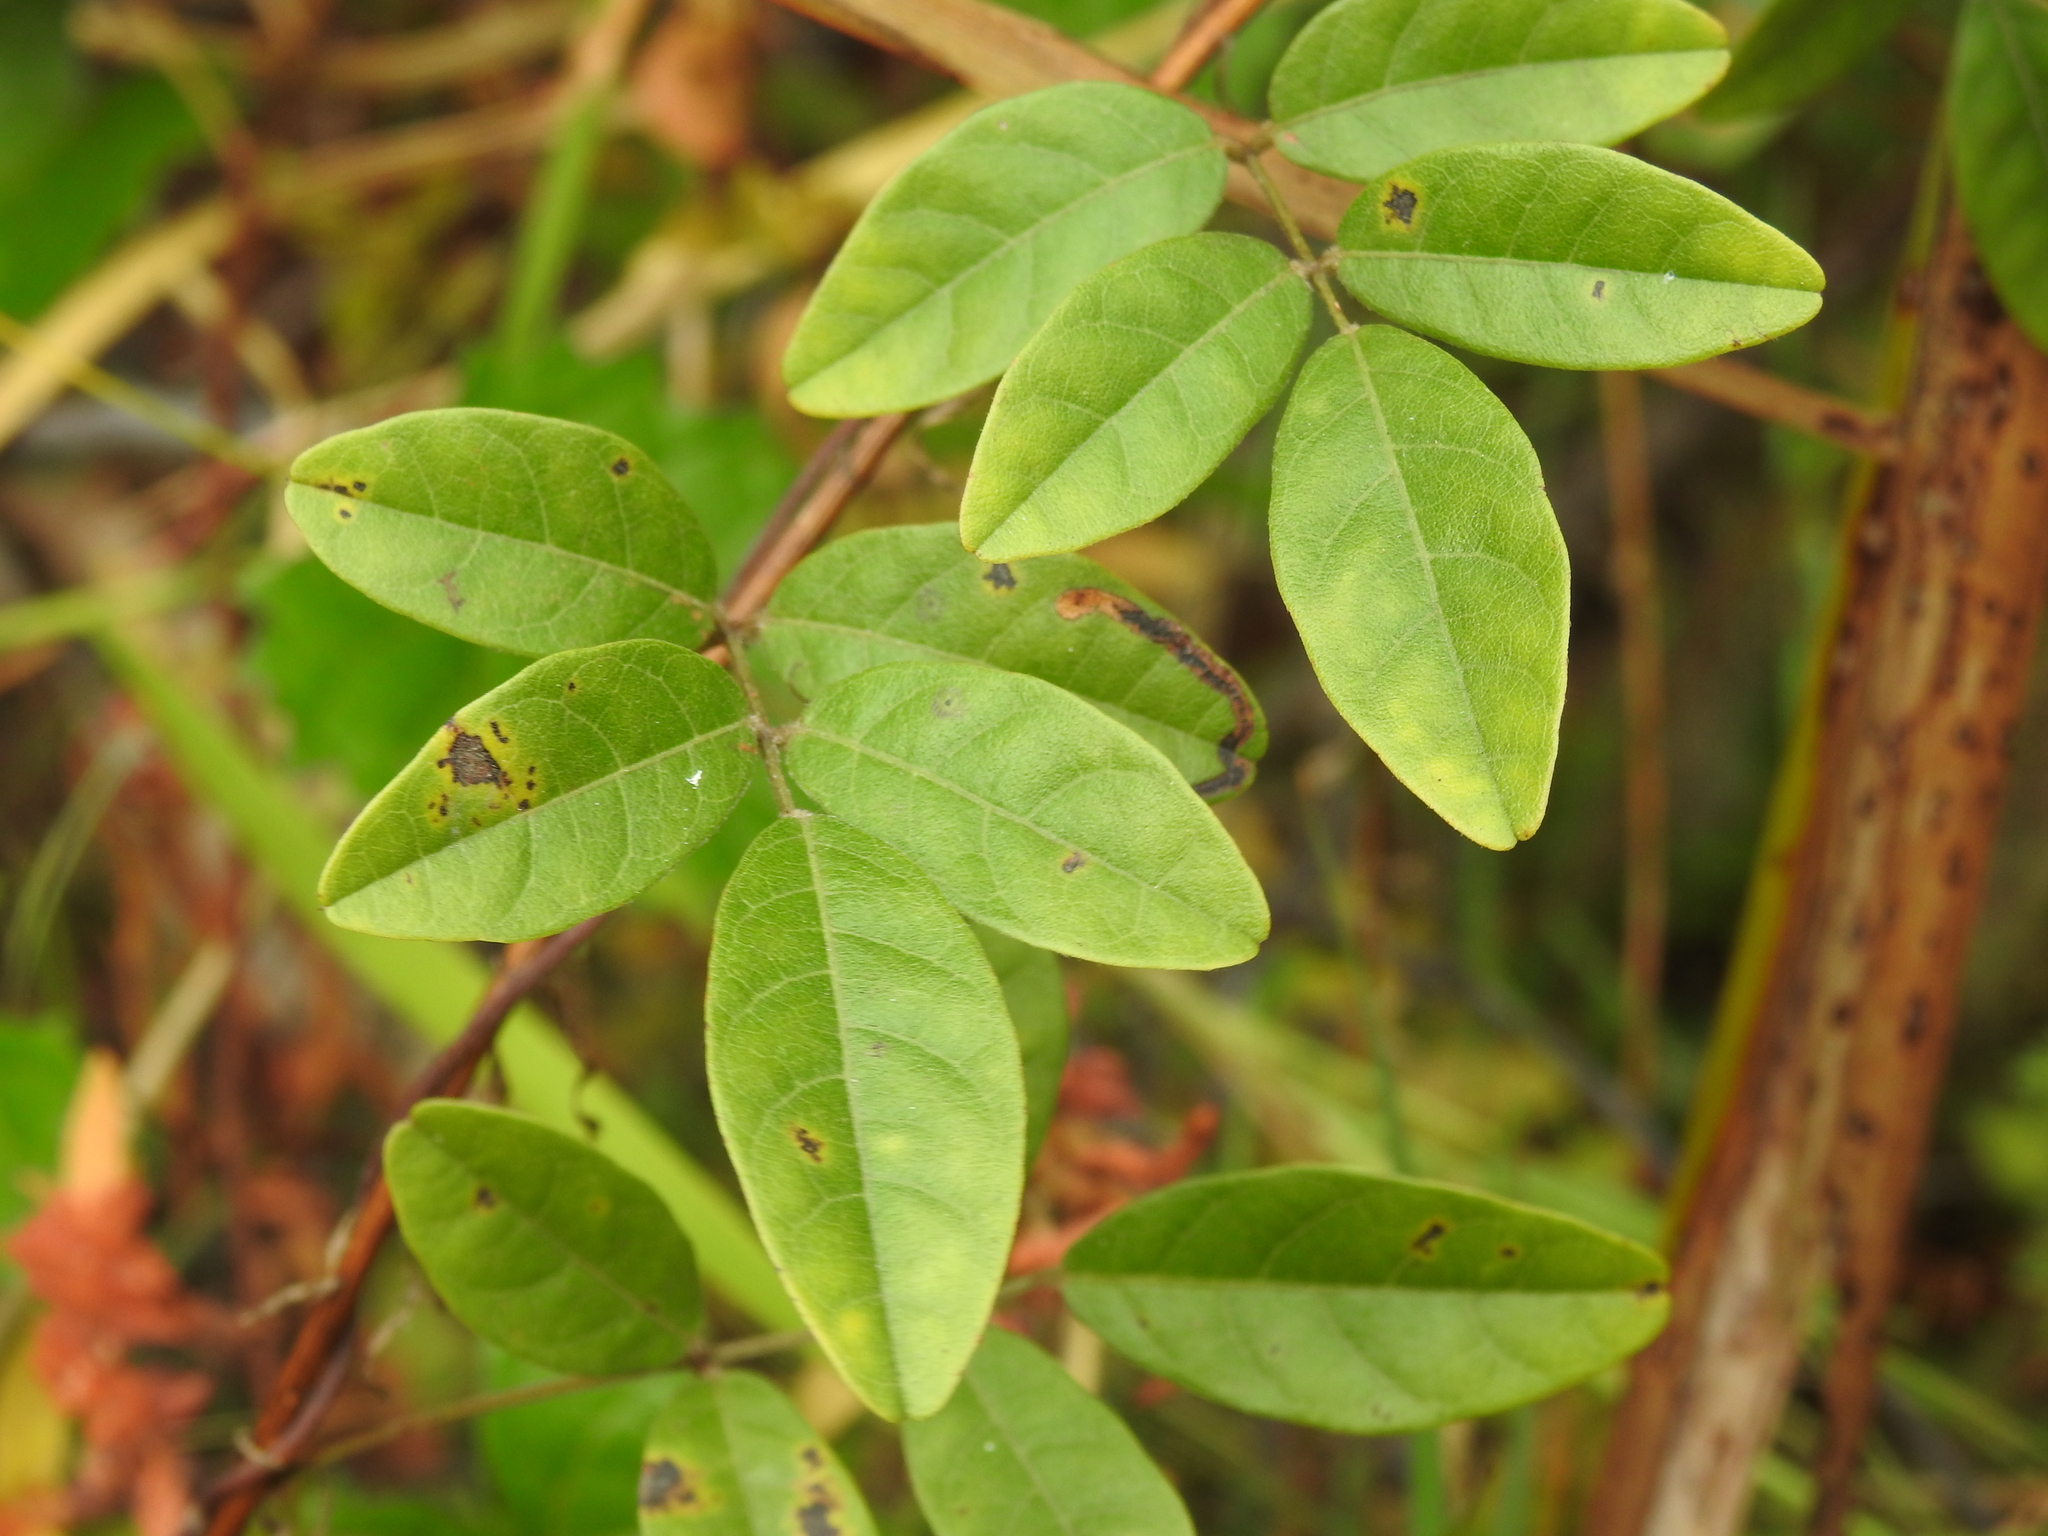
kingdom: Plantae
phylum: Tracheophyta
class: Magnoliopsida
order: Fabales
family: Fabaceae
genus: Galactia
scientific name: Galactia elliottii
